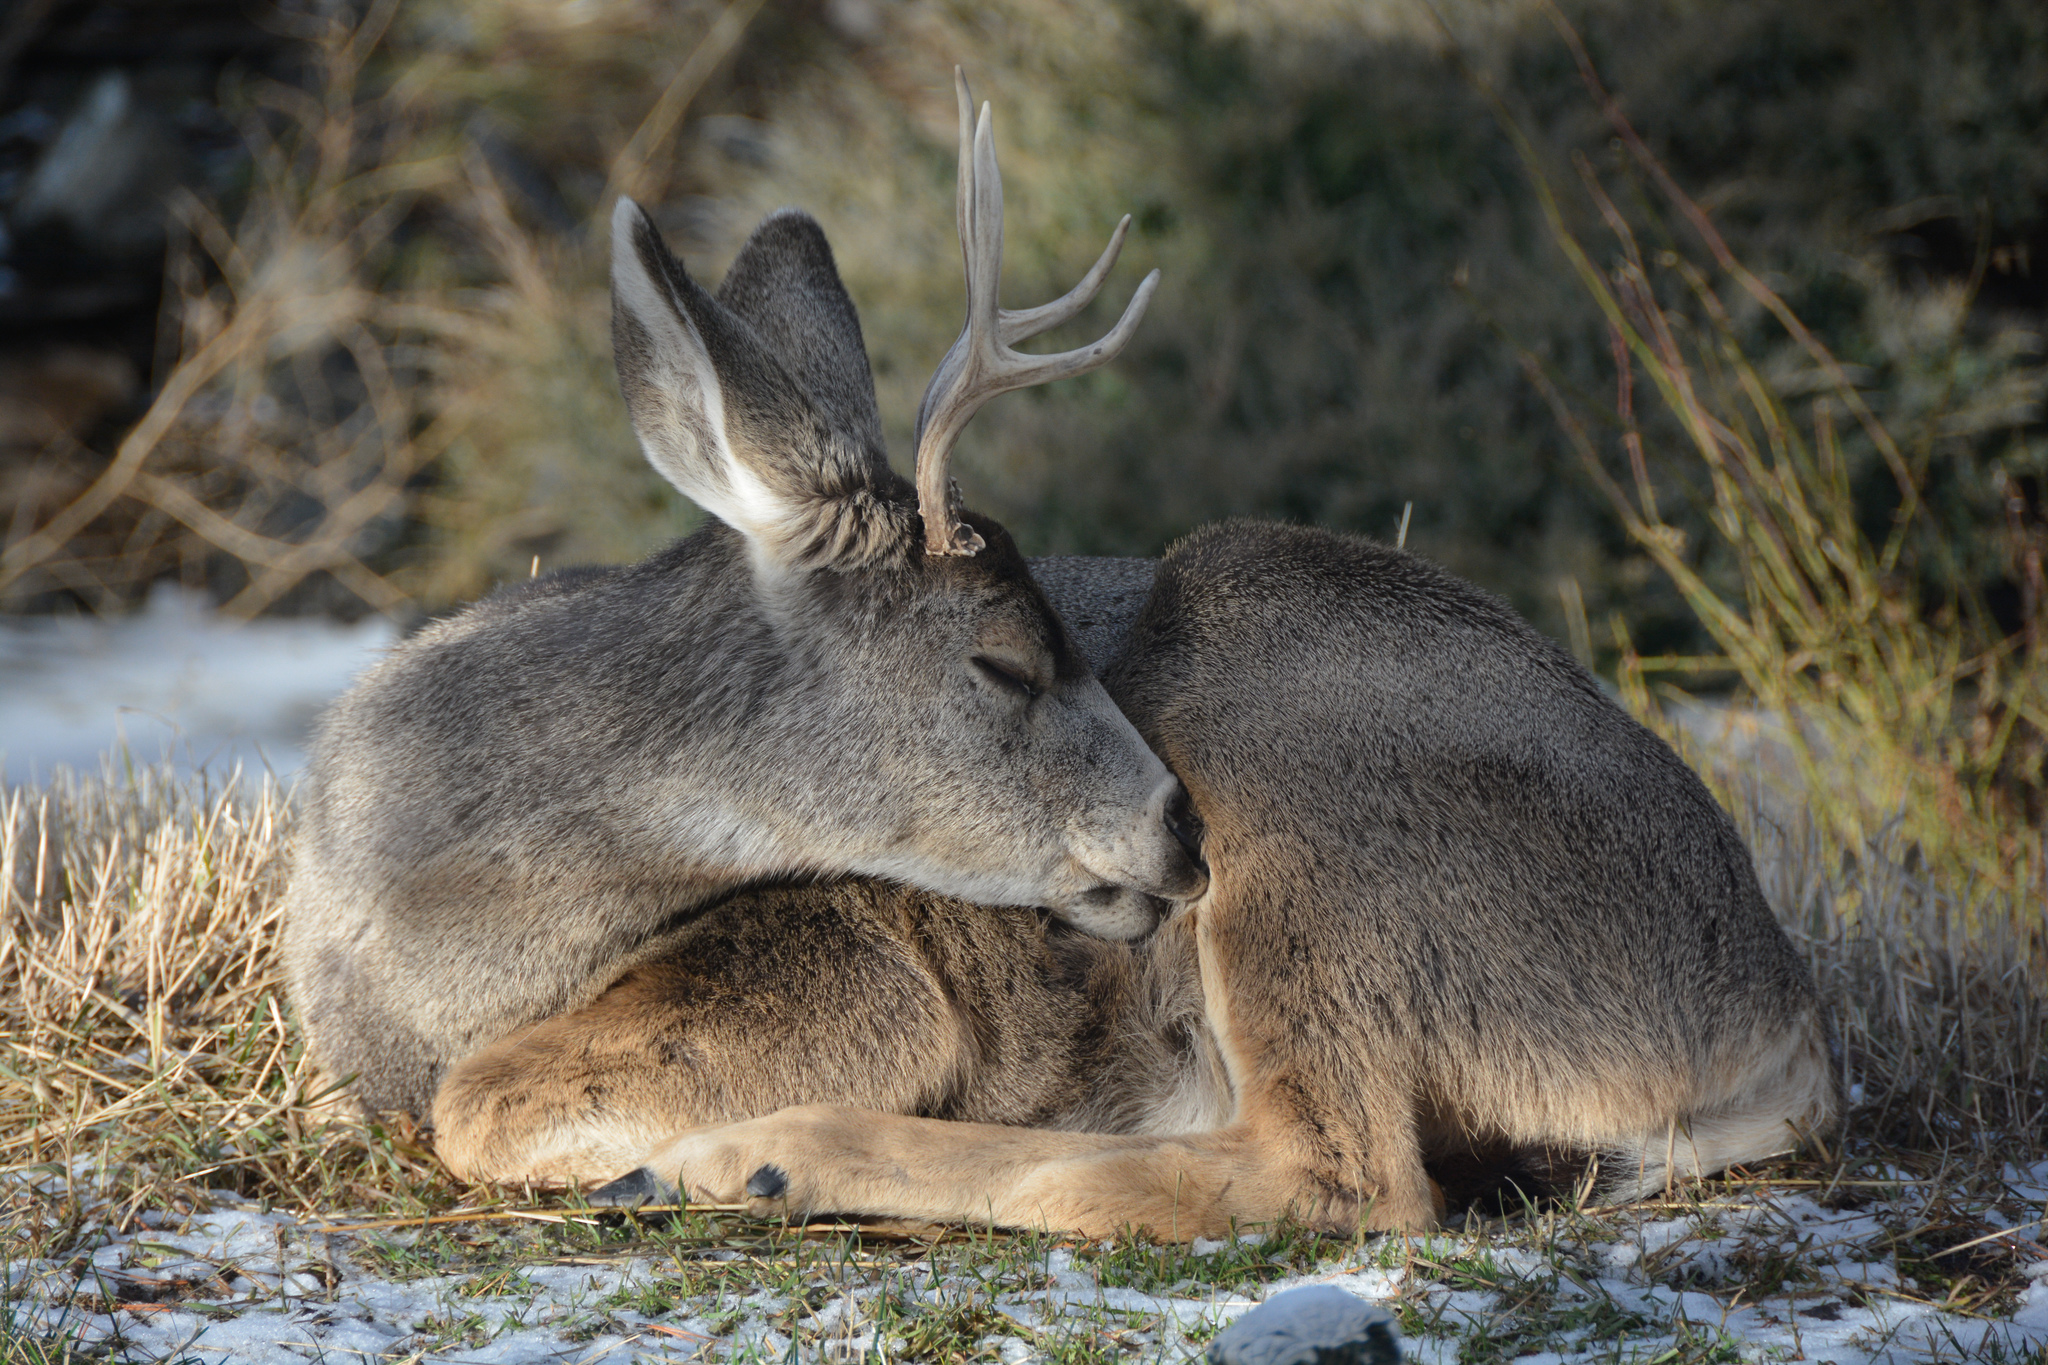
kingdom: Animalia
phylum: Chordata
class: Mammalia
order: Artiodactyla
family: Cervidae
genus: Odocoileus
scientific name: Odocoileus hemionus
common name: Mule deer
